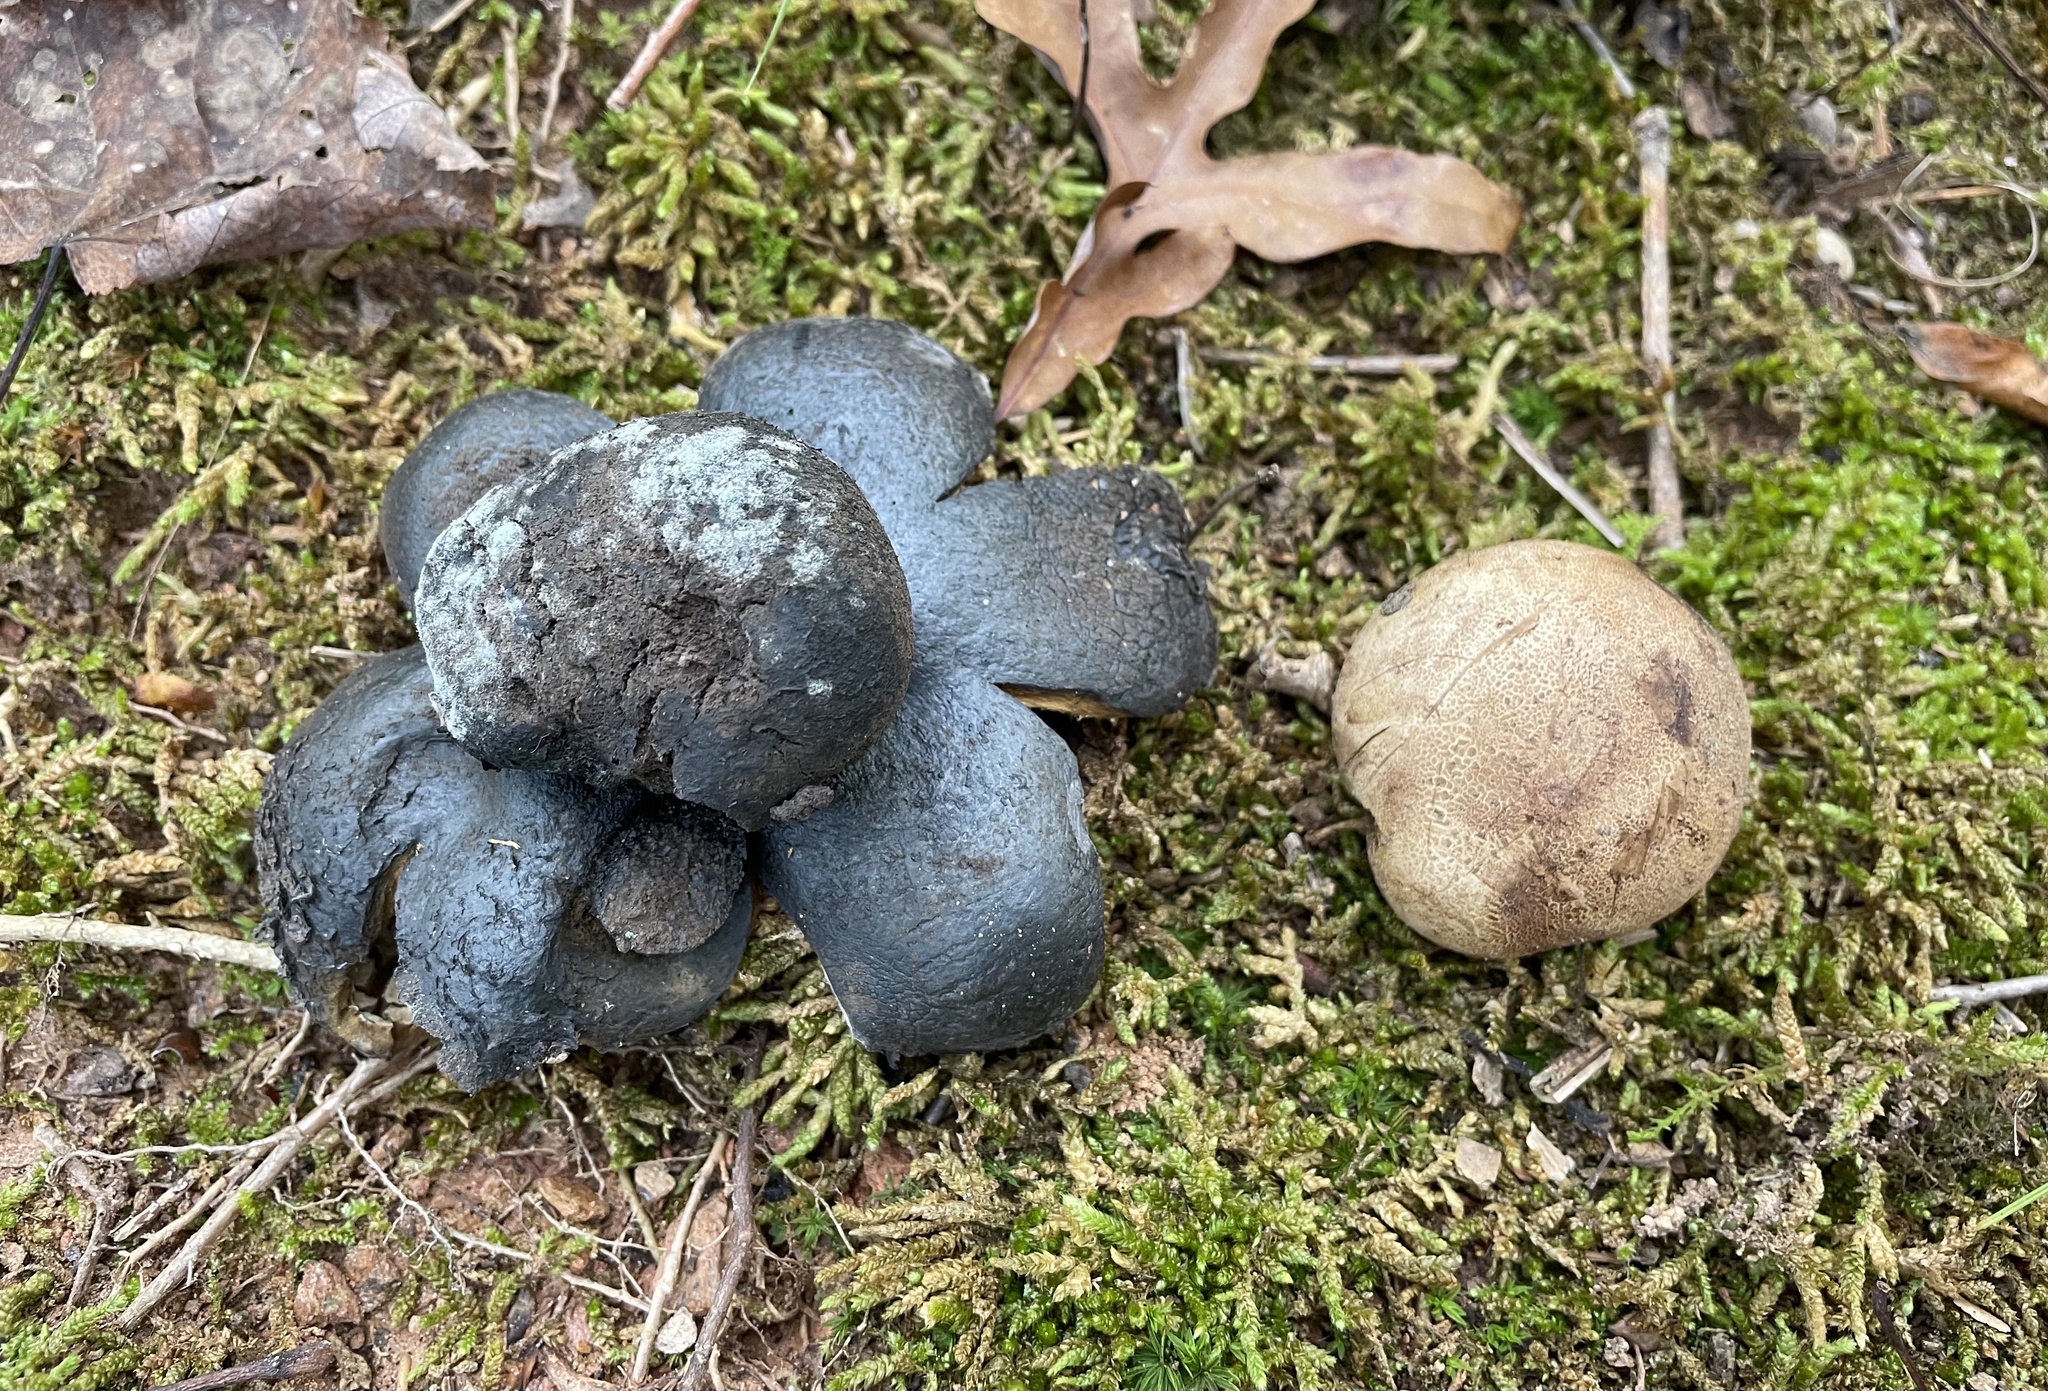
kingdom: Fungi
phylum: Basidiomycota
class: Agaricomycetes
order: Boletales
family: Sclerodermataceae
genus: Scleroderma
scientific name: Scleroderma polyrhizum
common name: Many-rooted earthball
